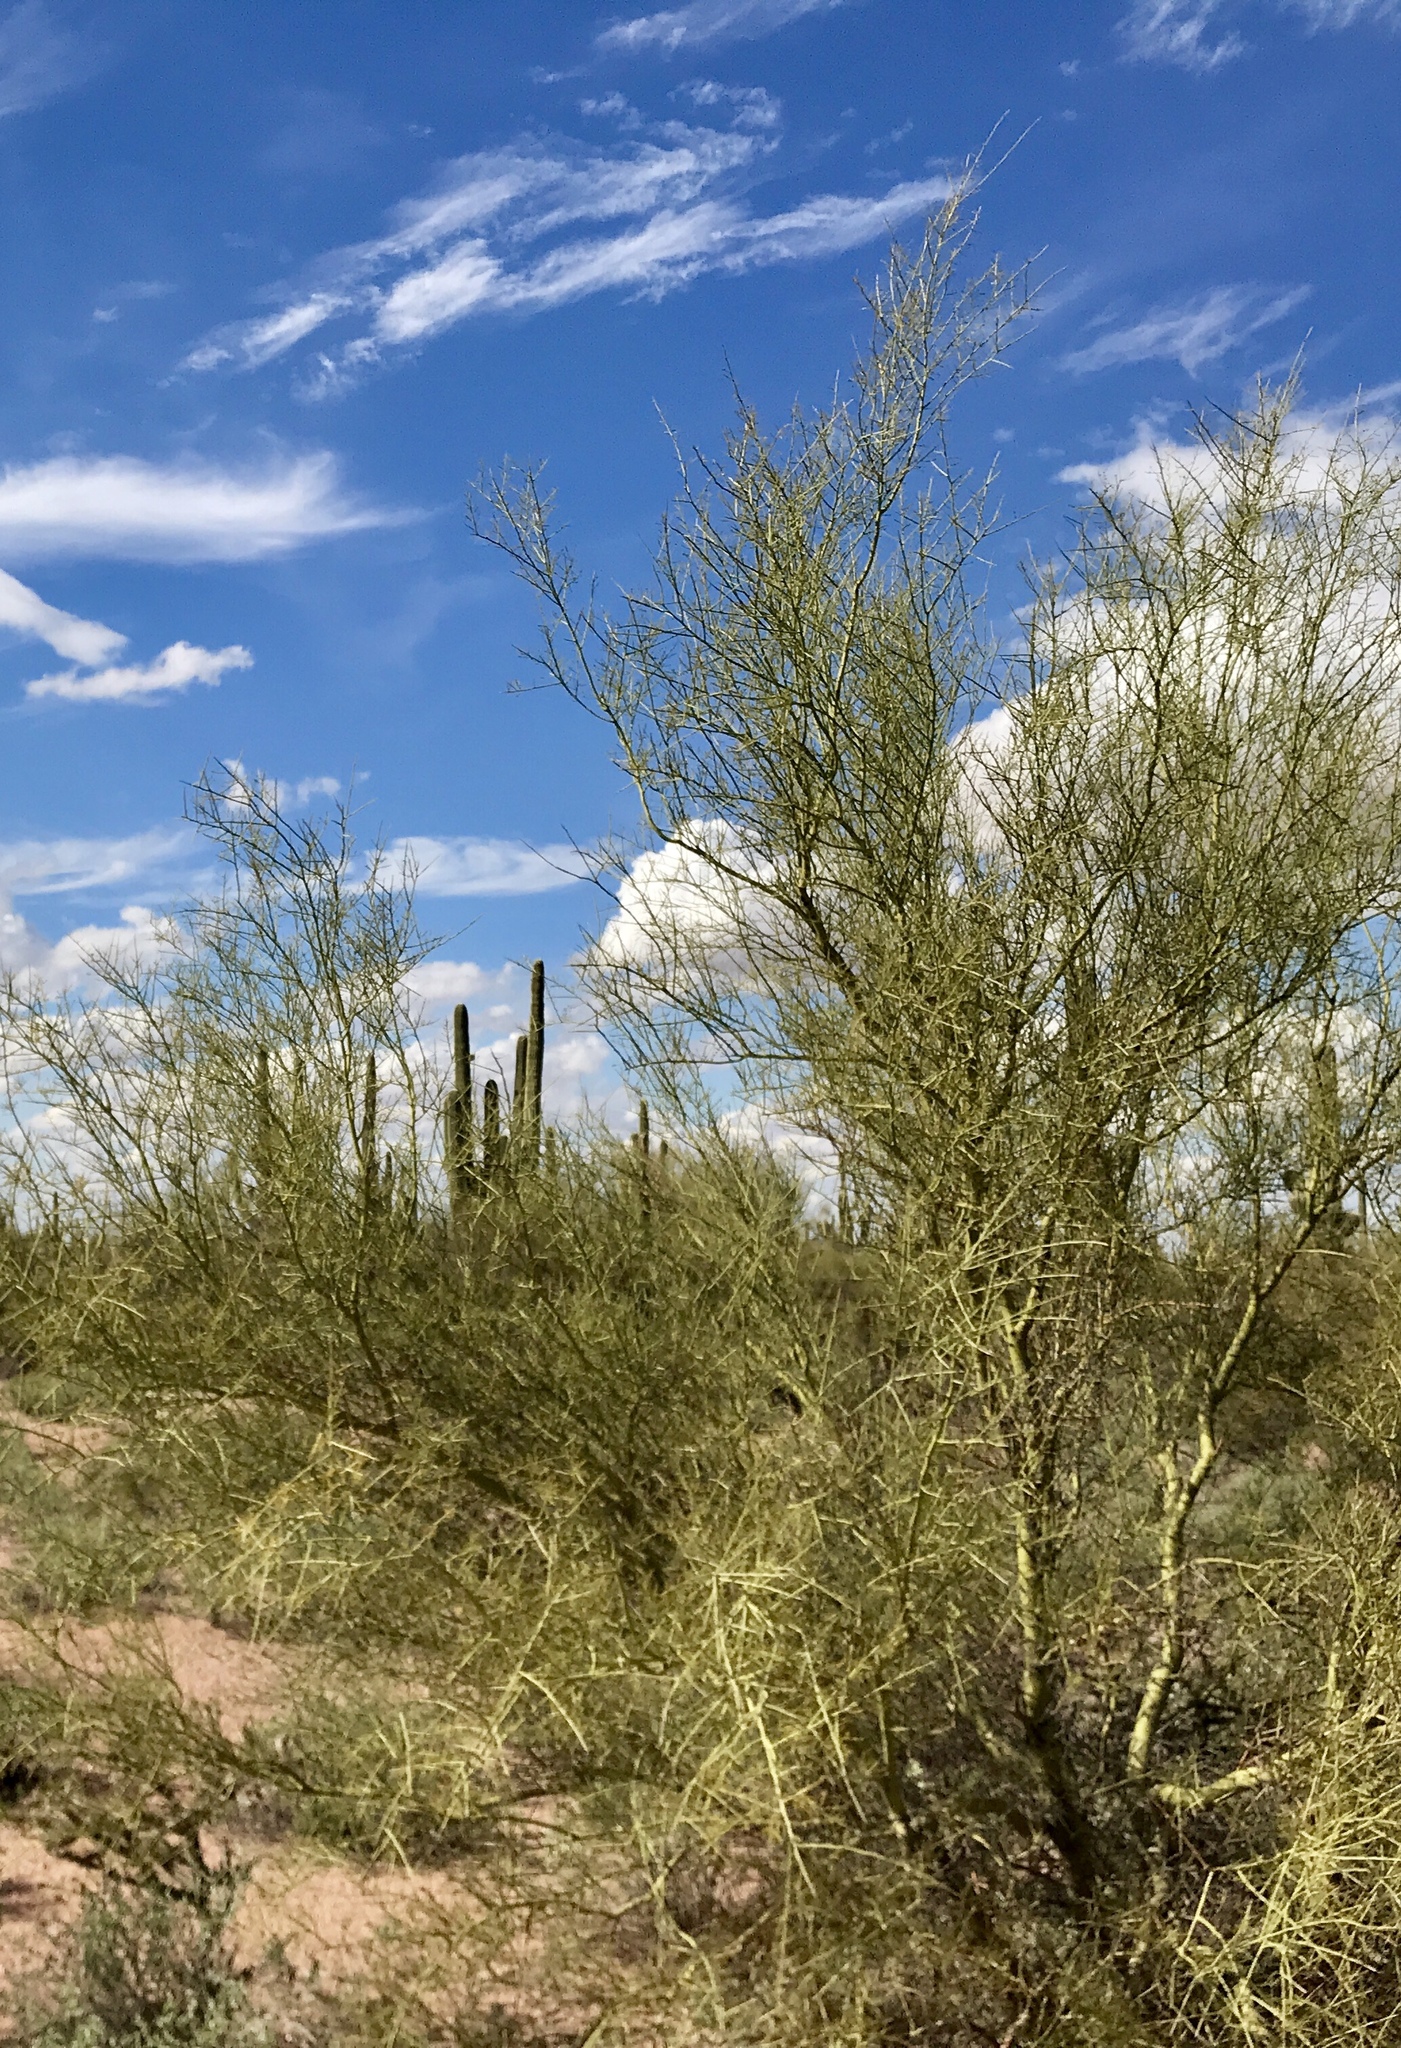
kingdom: Plantae
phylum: Tracheophyta
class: Magnoliopsida
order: Fabales
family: Fabaceae
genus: Parkinsonia
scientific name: Parkinsonia microphylla
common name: Yellow paloverde
